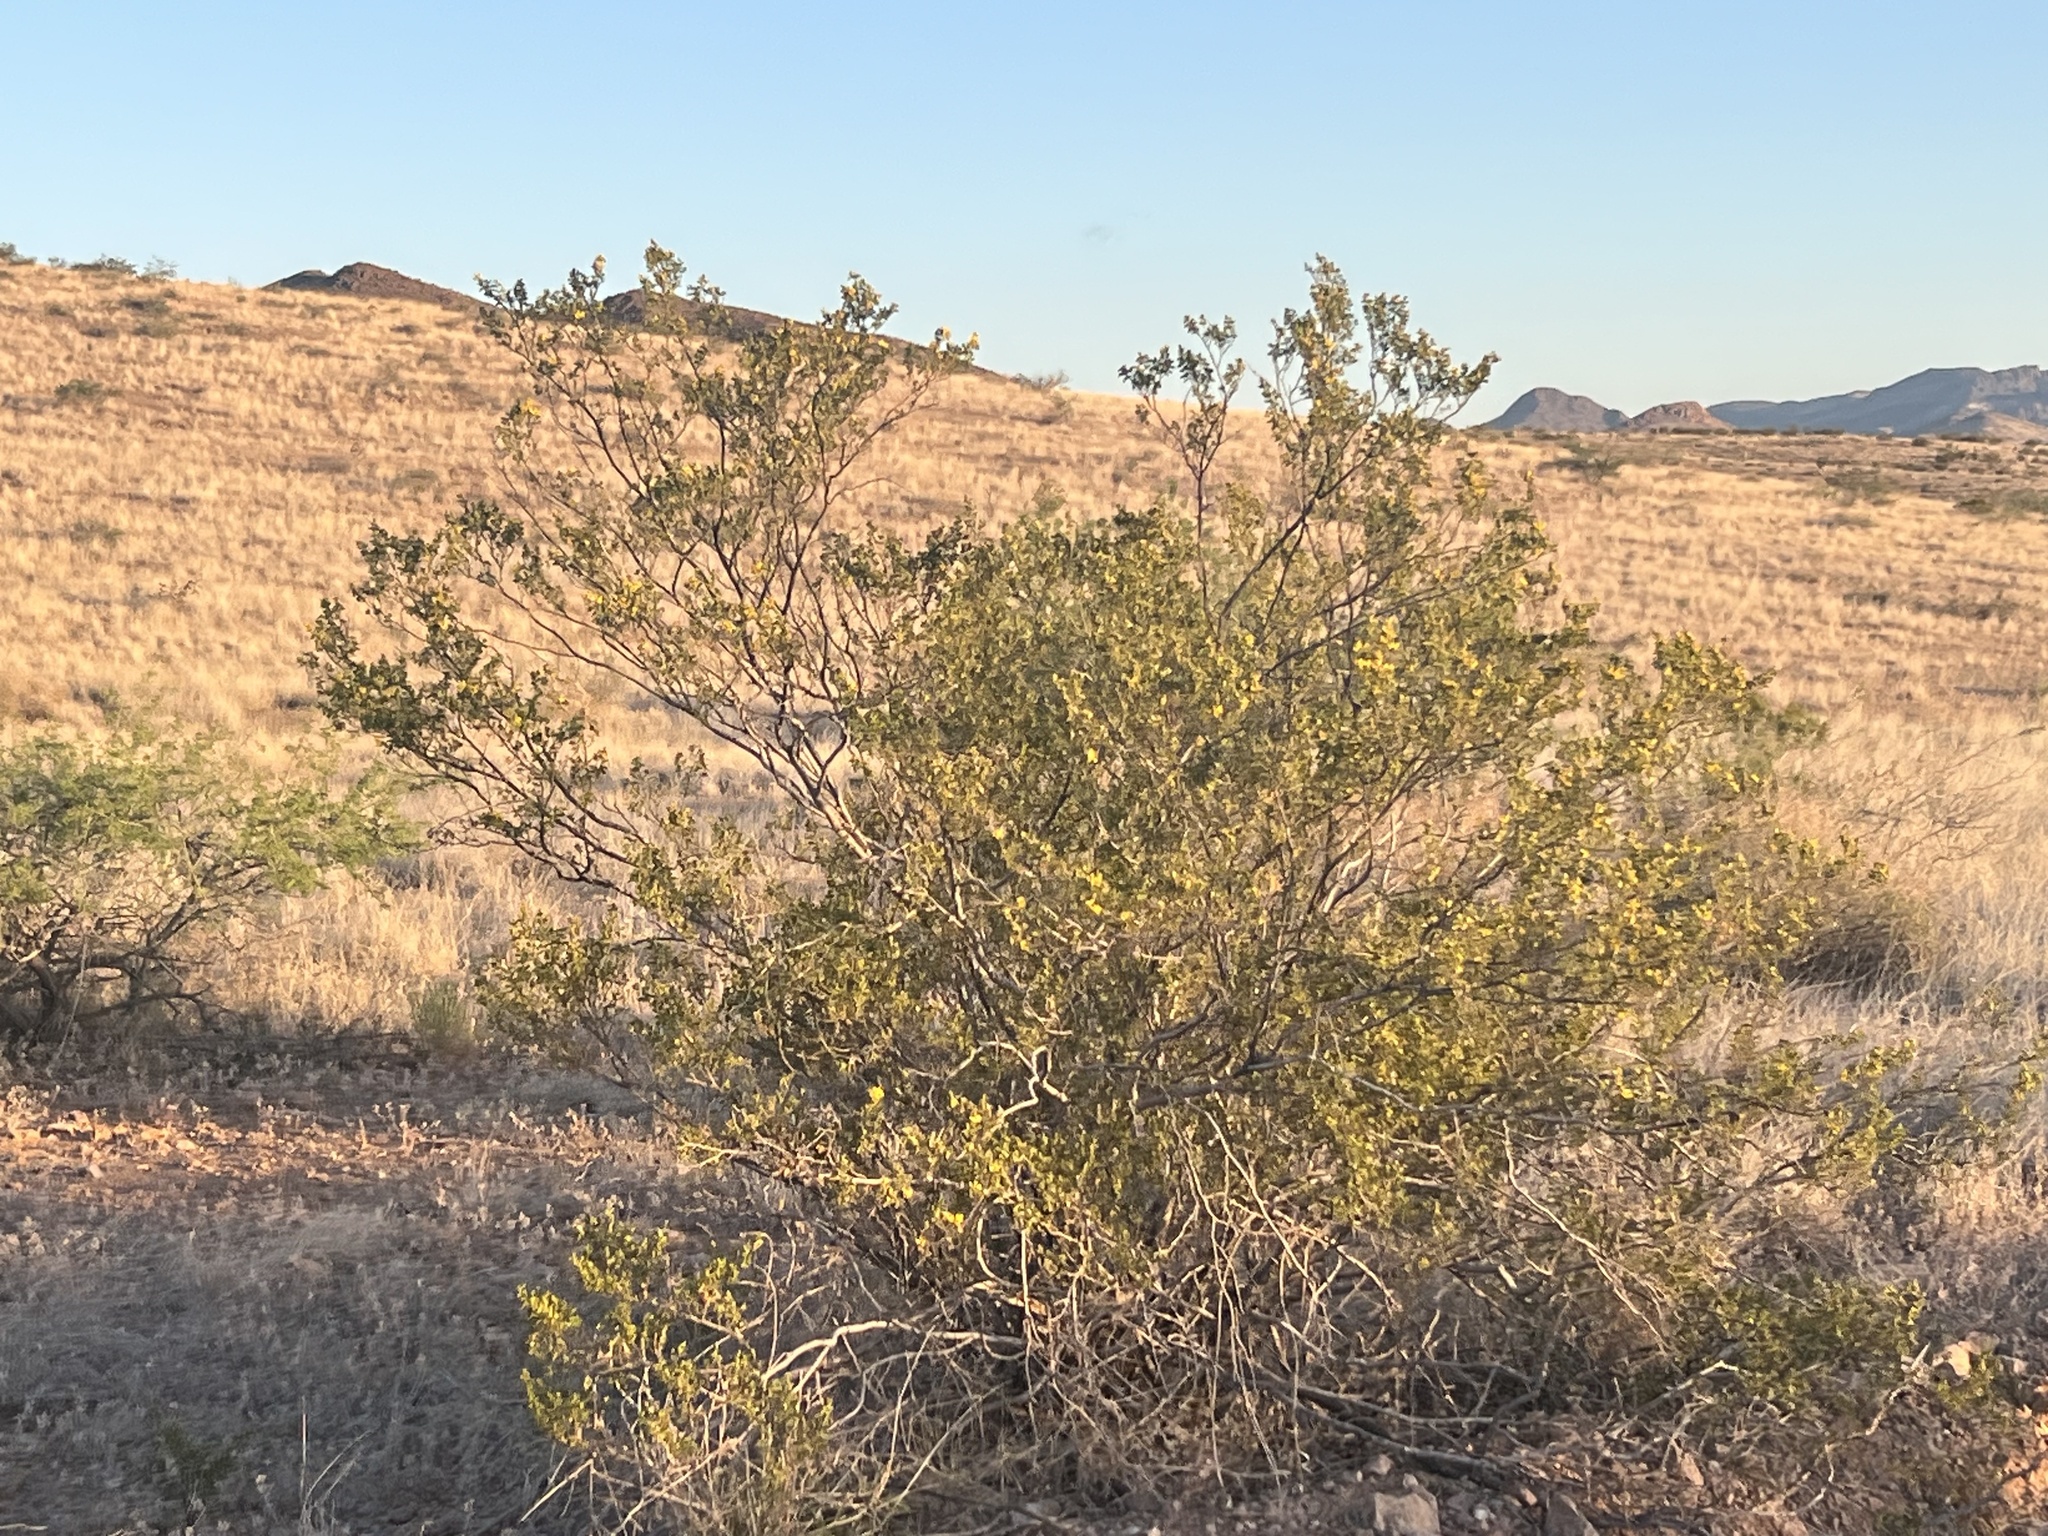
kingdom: Plantae
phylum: Tracheophyta
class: Magnoliopsida
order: Zygophyllales
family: Zygophyllaceae
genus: Larrea
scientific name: Larrea tridentata
